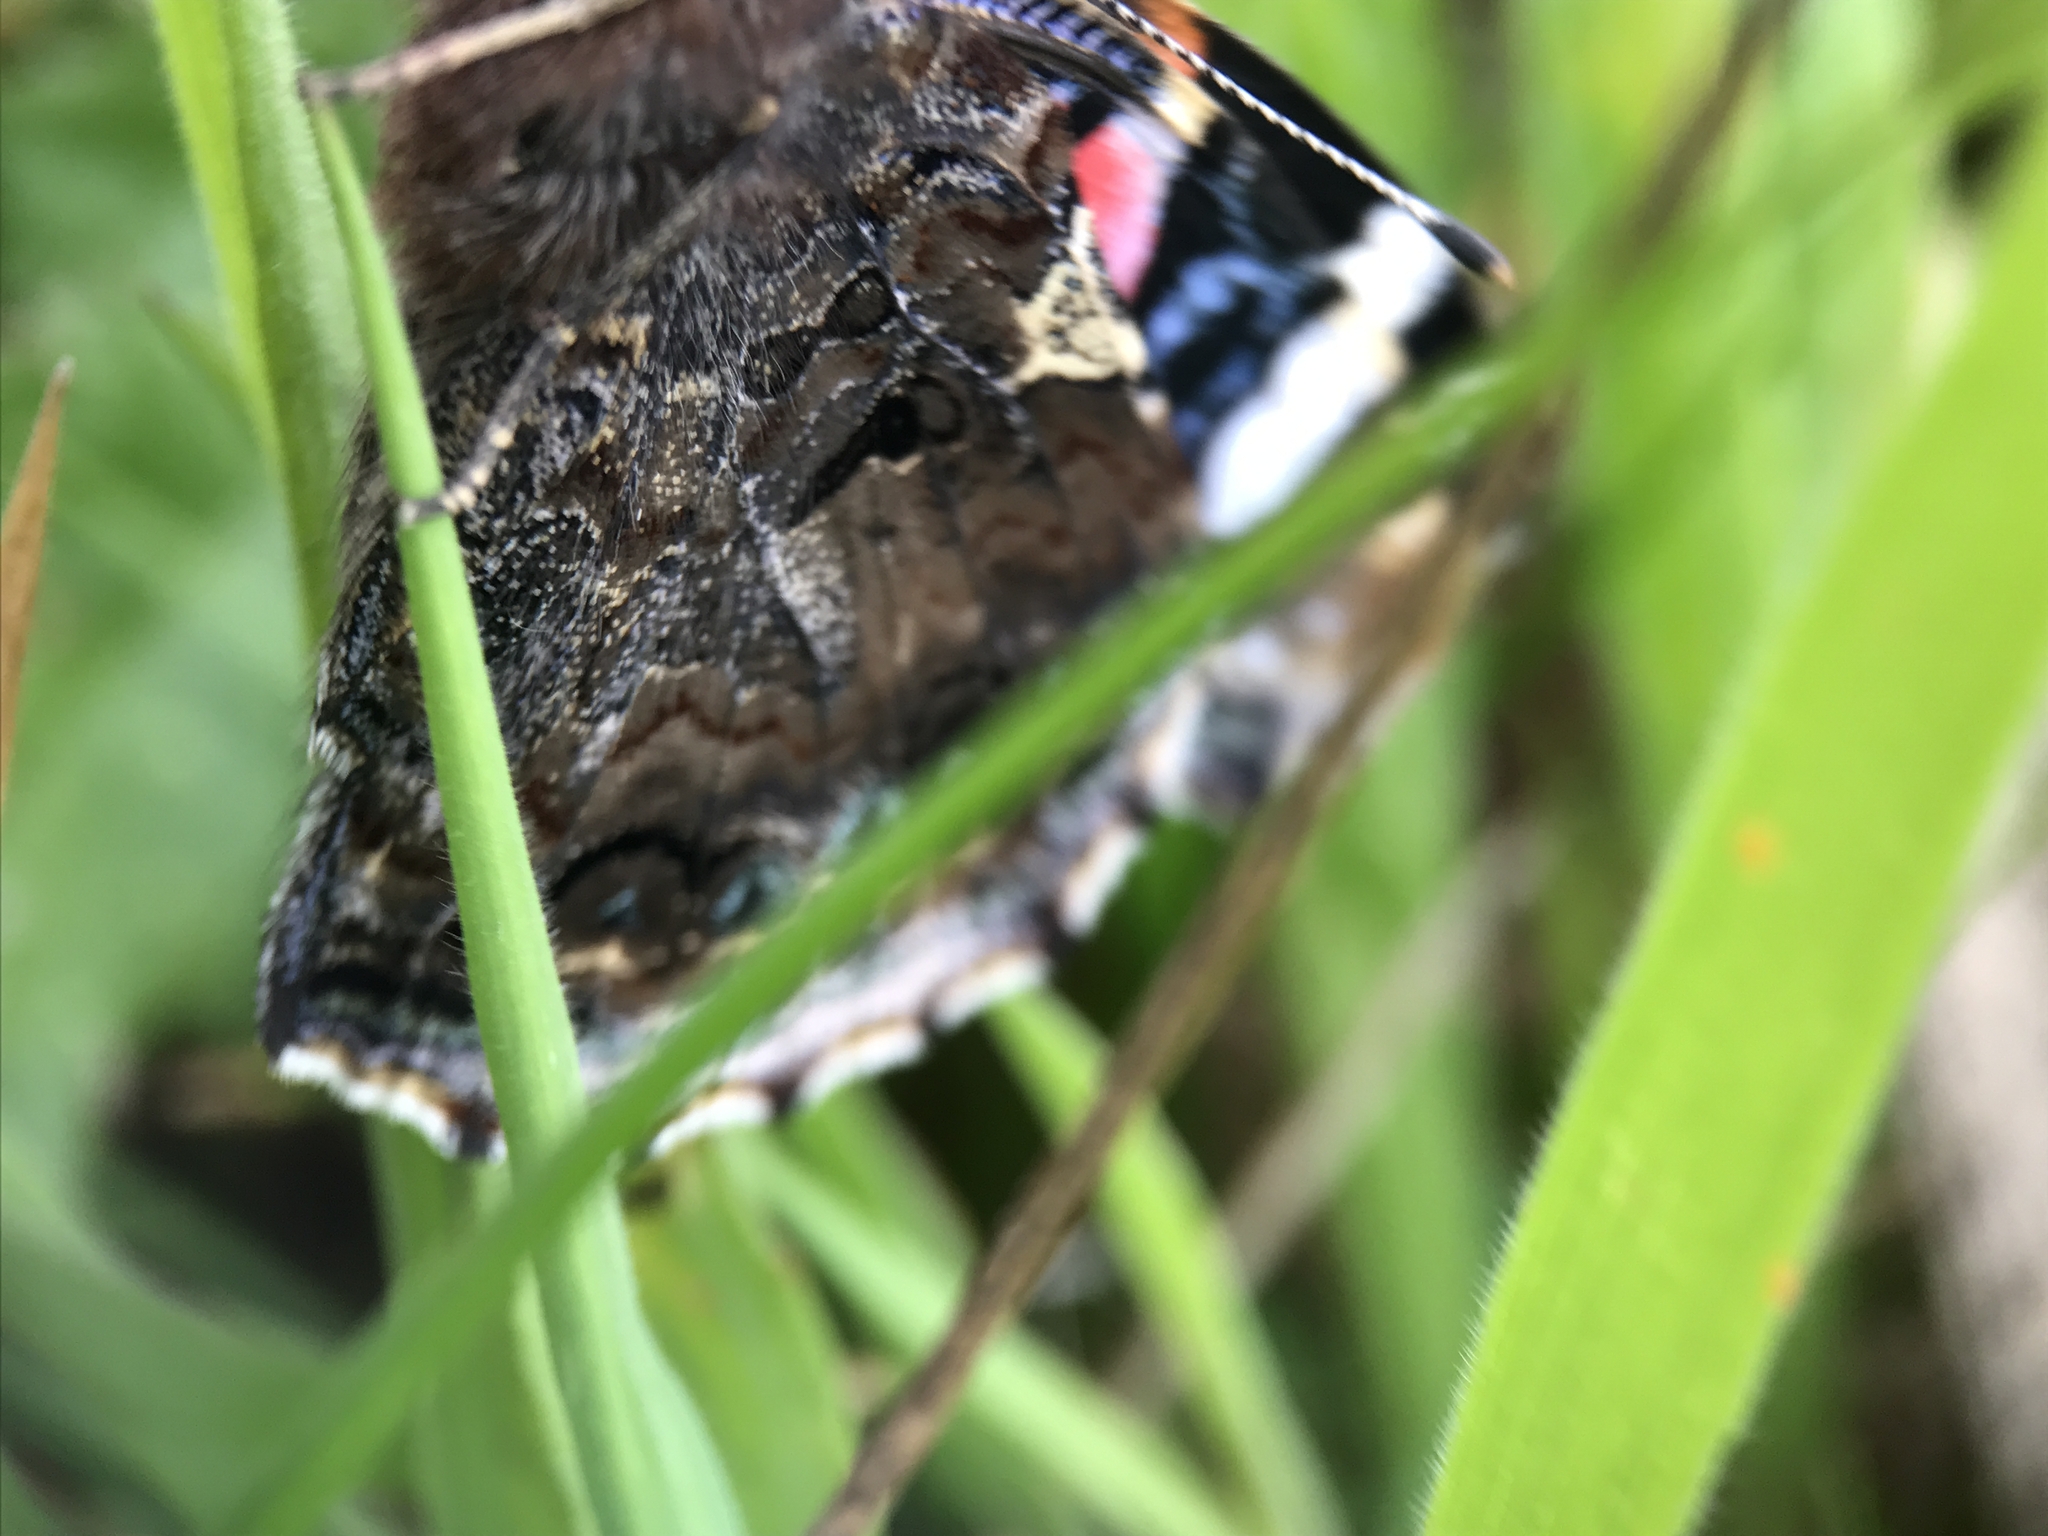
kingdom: Animalia
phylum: Arthropoda
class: Insecta
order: Lepidoptera
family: Nymphalidae
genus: Vanessa
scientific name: Vanessa atalanta
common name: Red admiral
